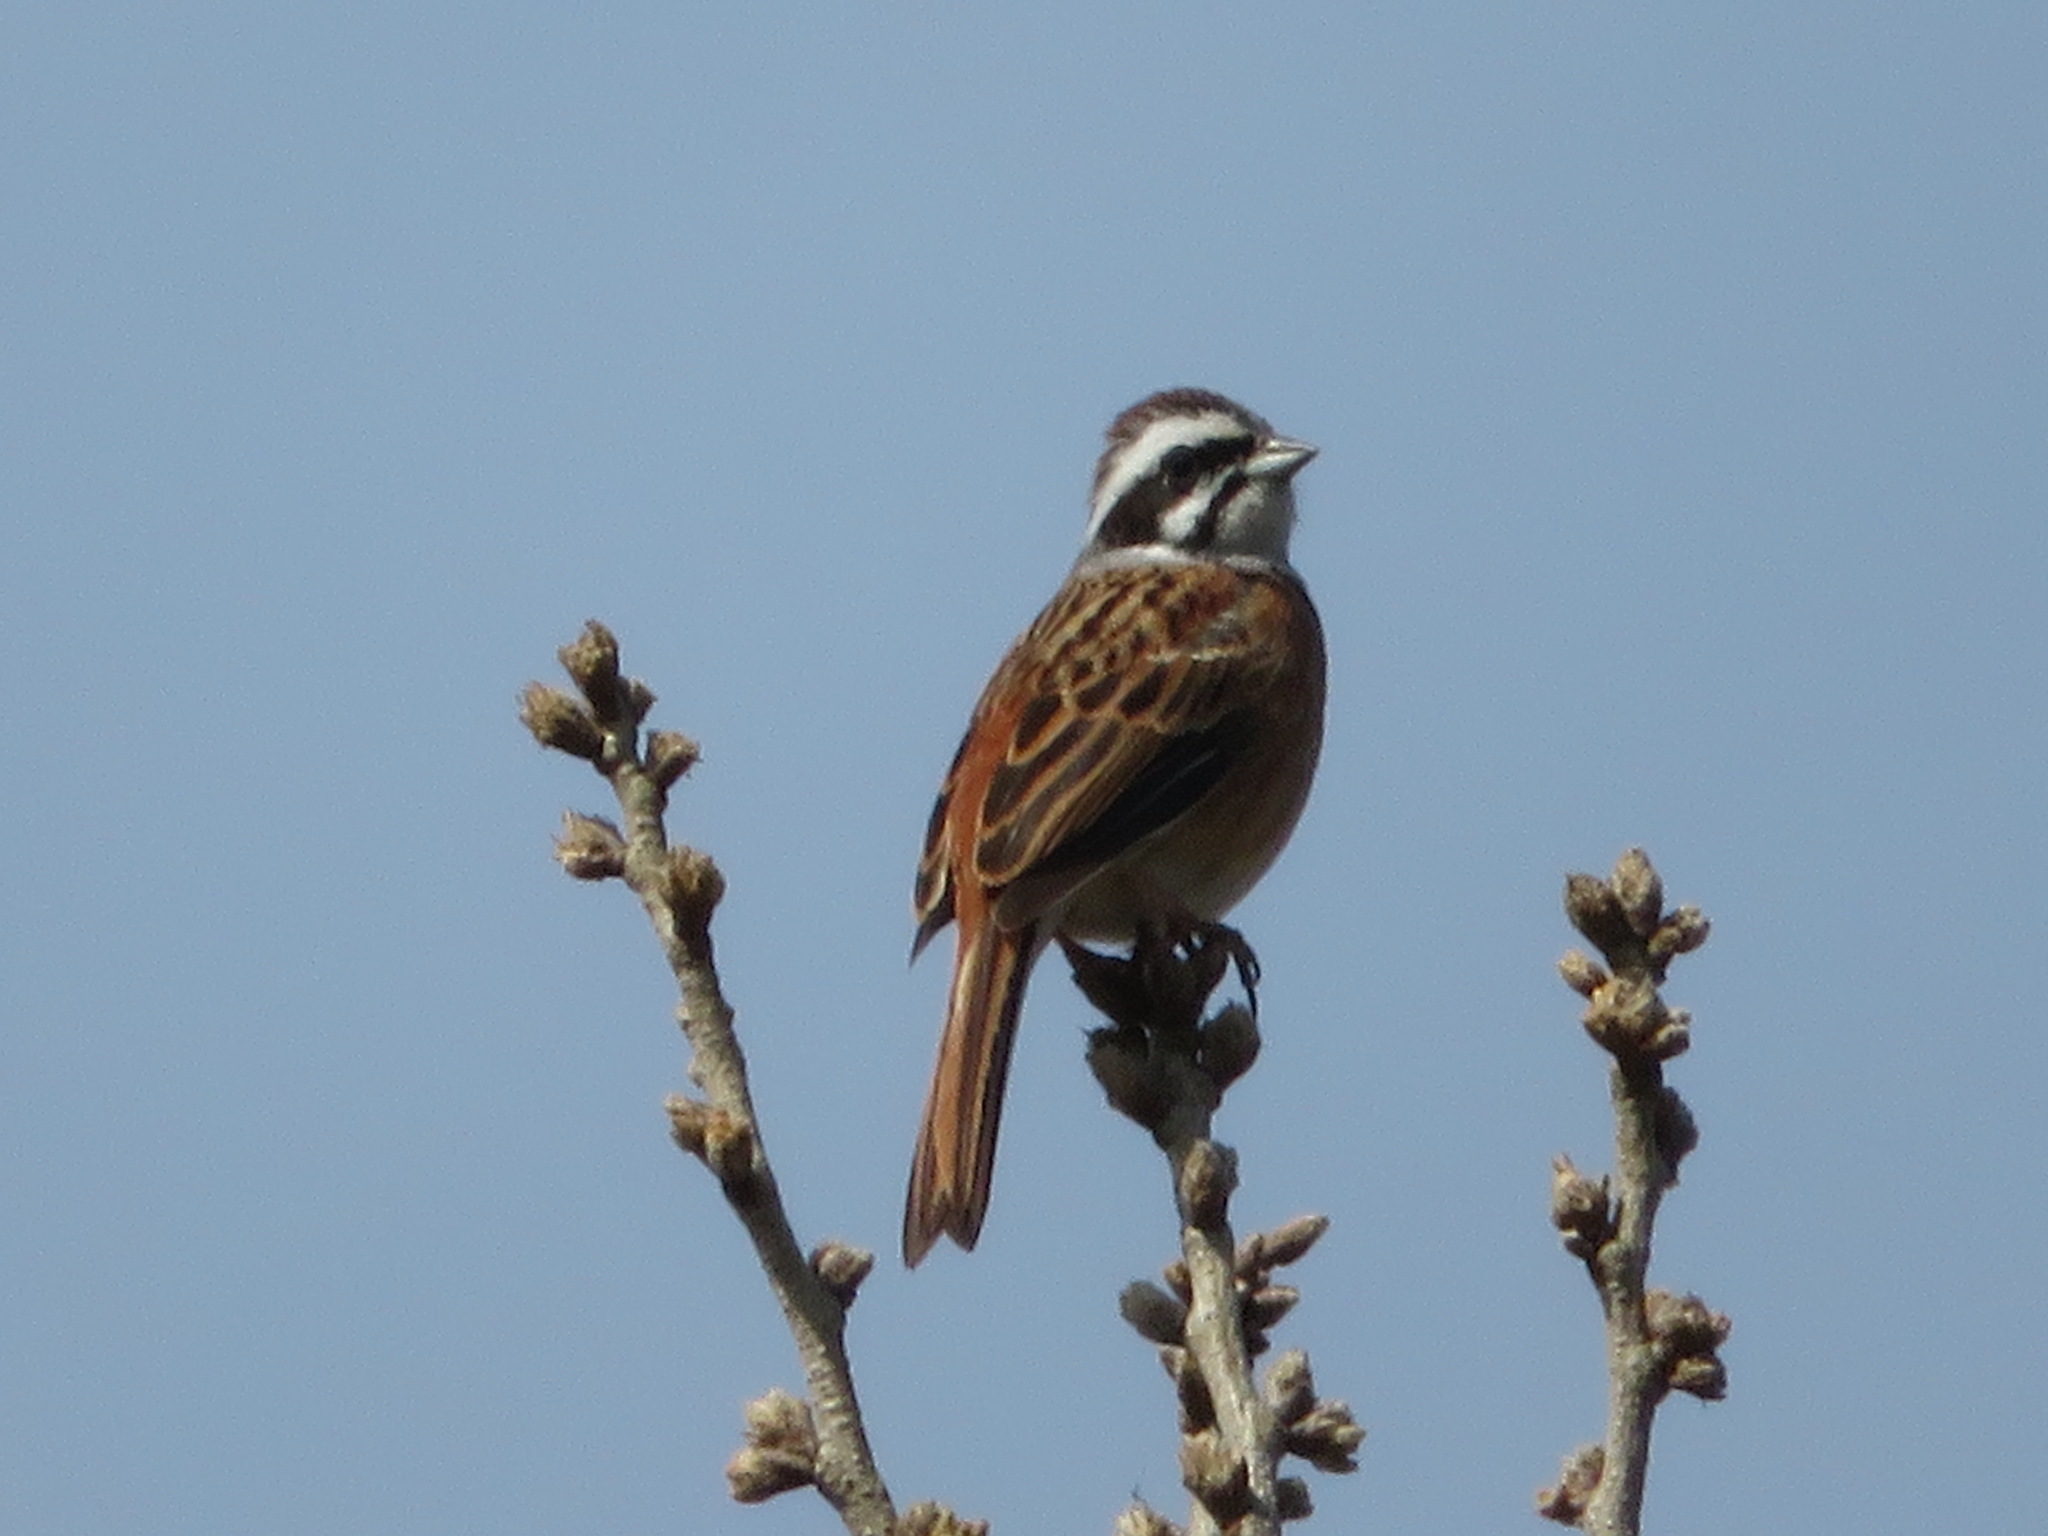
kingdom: Animalia
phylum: Chordata
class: Aves
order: Passeriformes
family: Emberizidae
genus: Emberiza
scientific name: Emberiza cioides
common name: Meadow bunting
